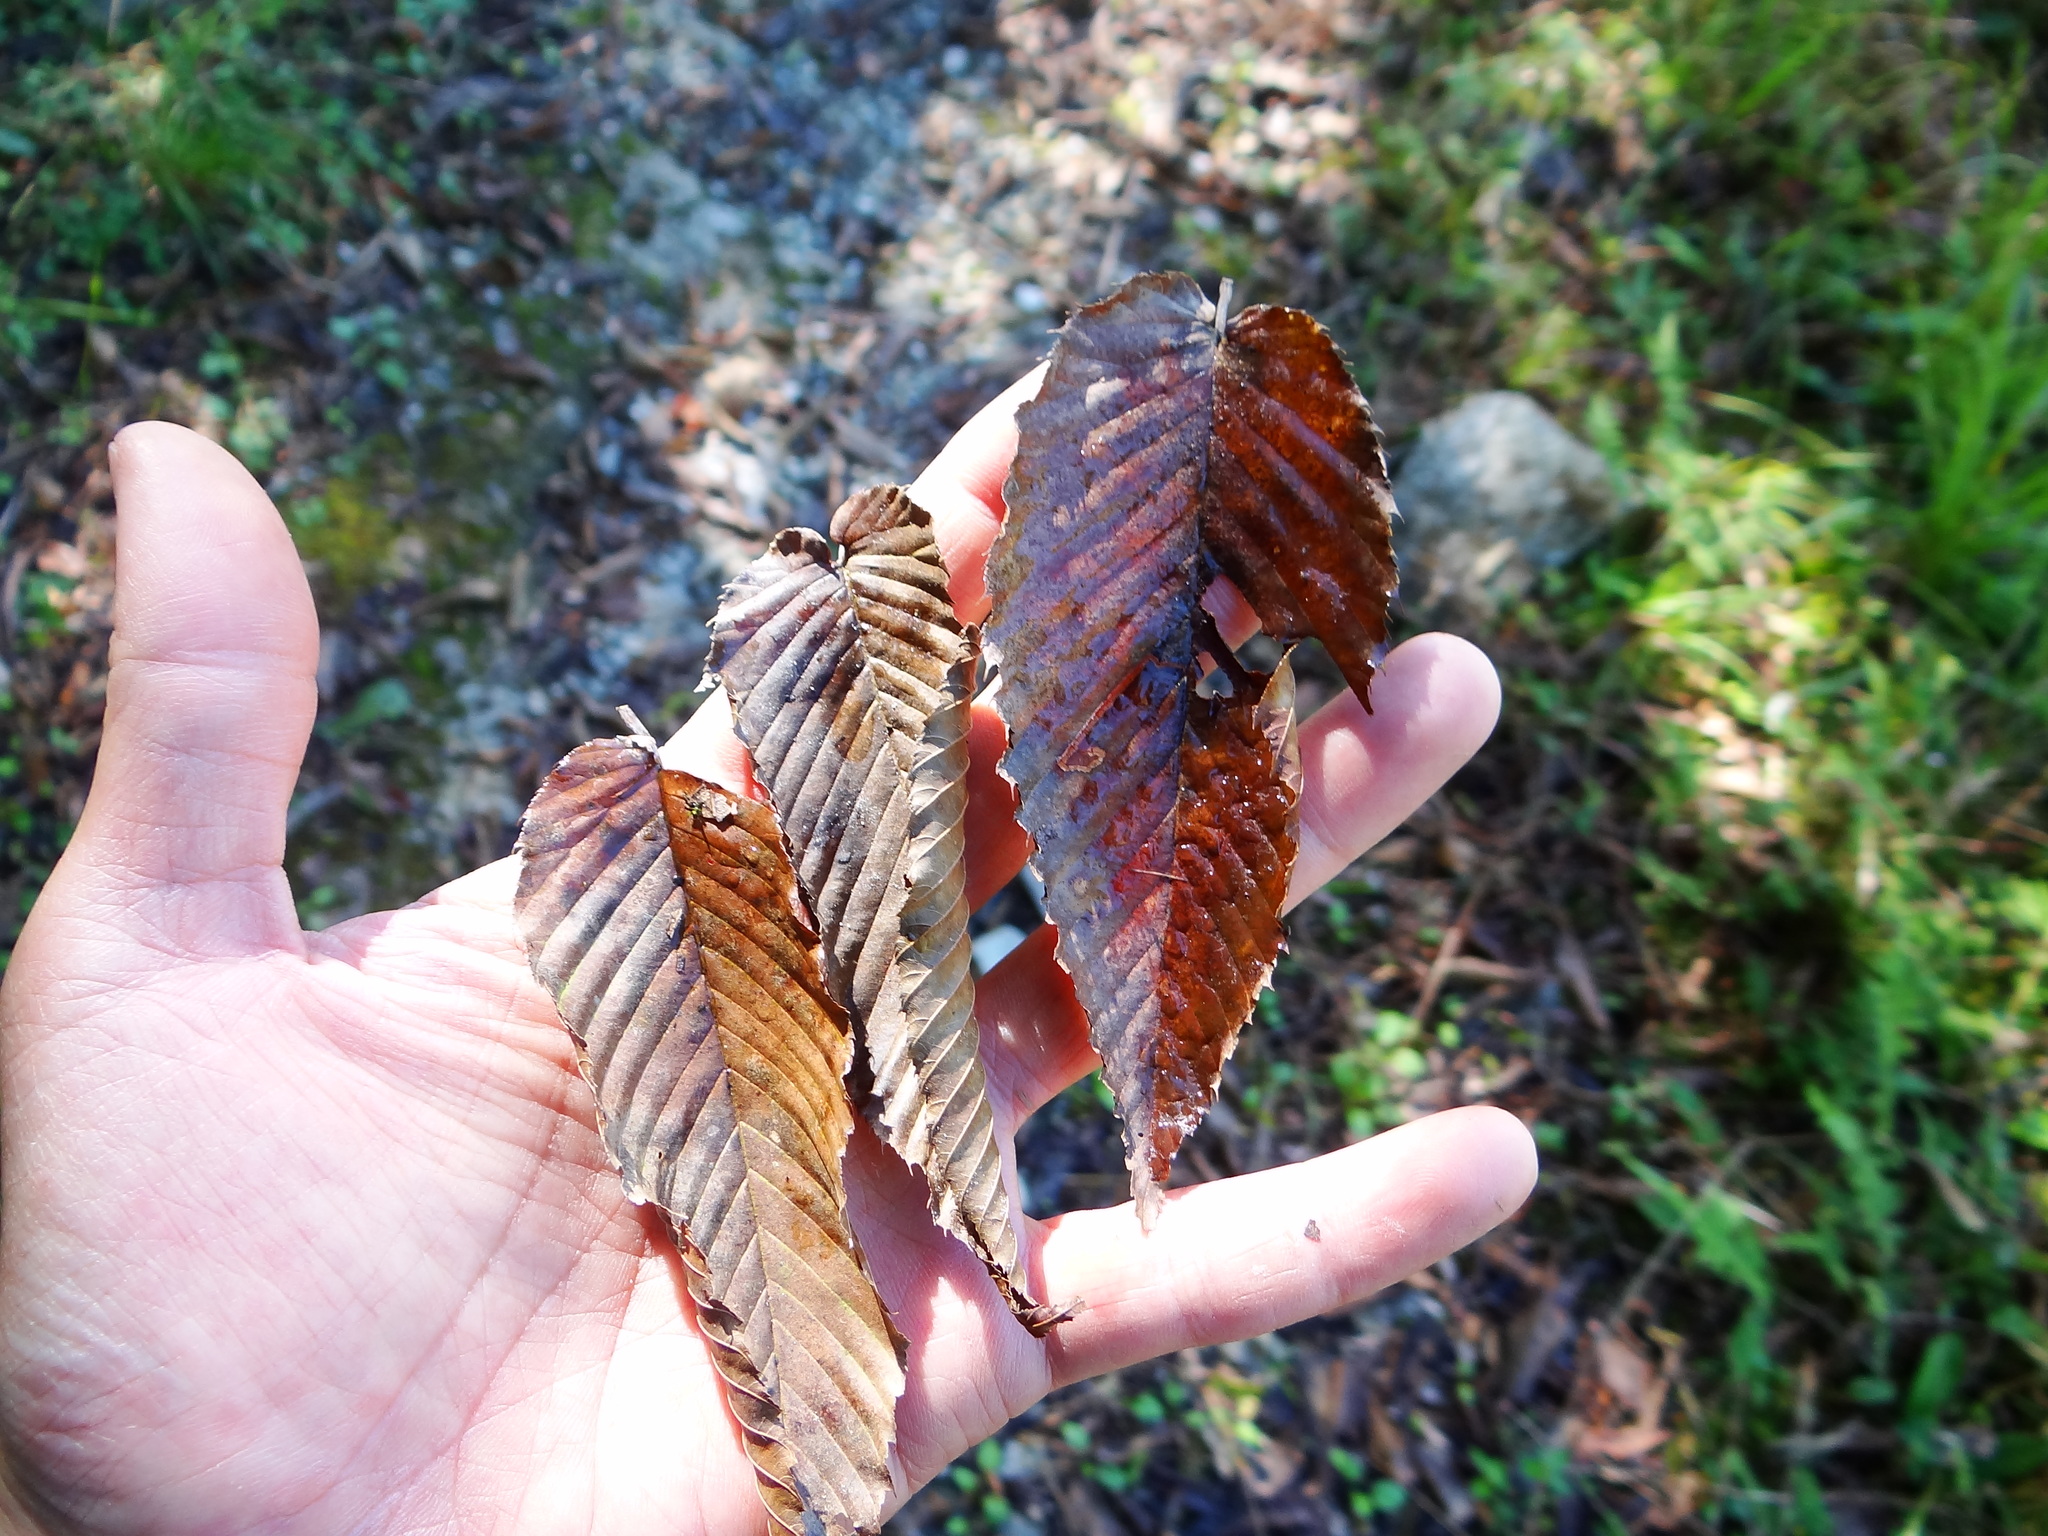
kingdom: Plantae
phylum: Tracheophyta
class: Magnoliopsida
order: Fagales
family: Betulaceae
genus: Carpinus
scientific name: Carpinus rankanensis
